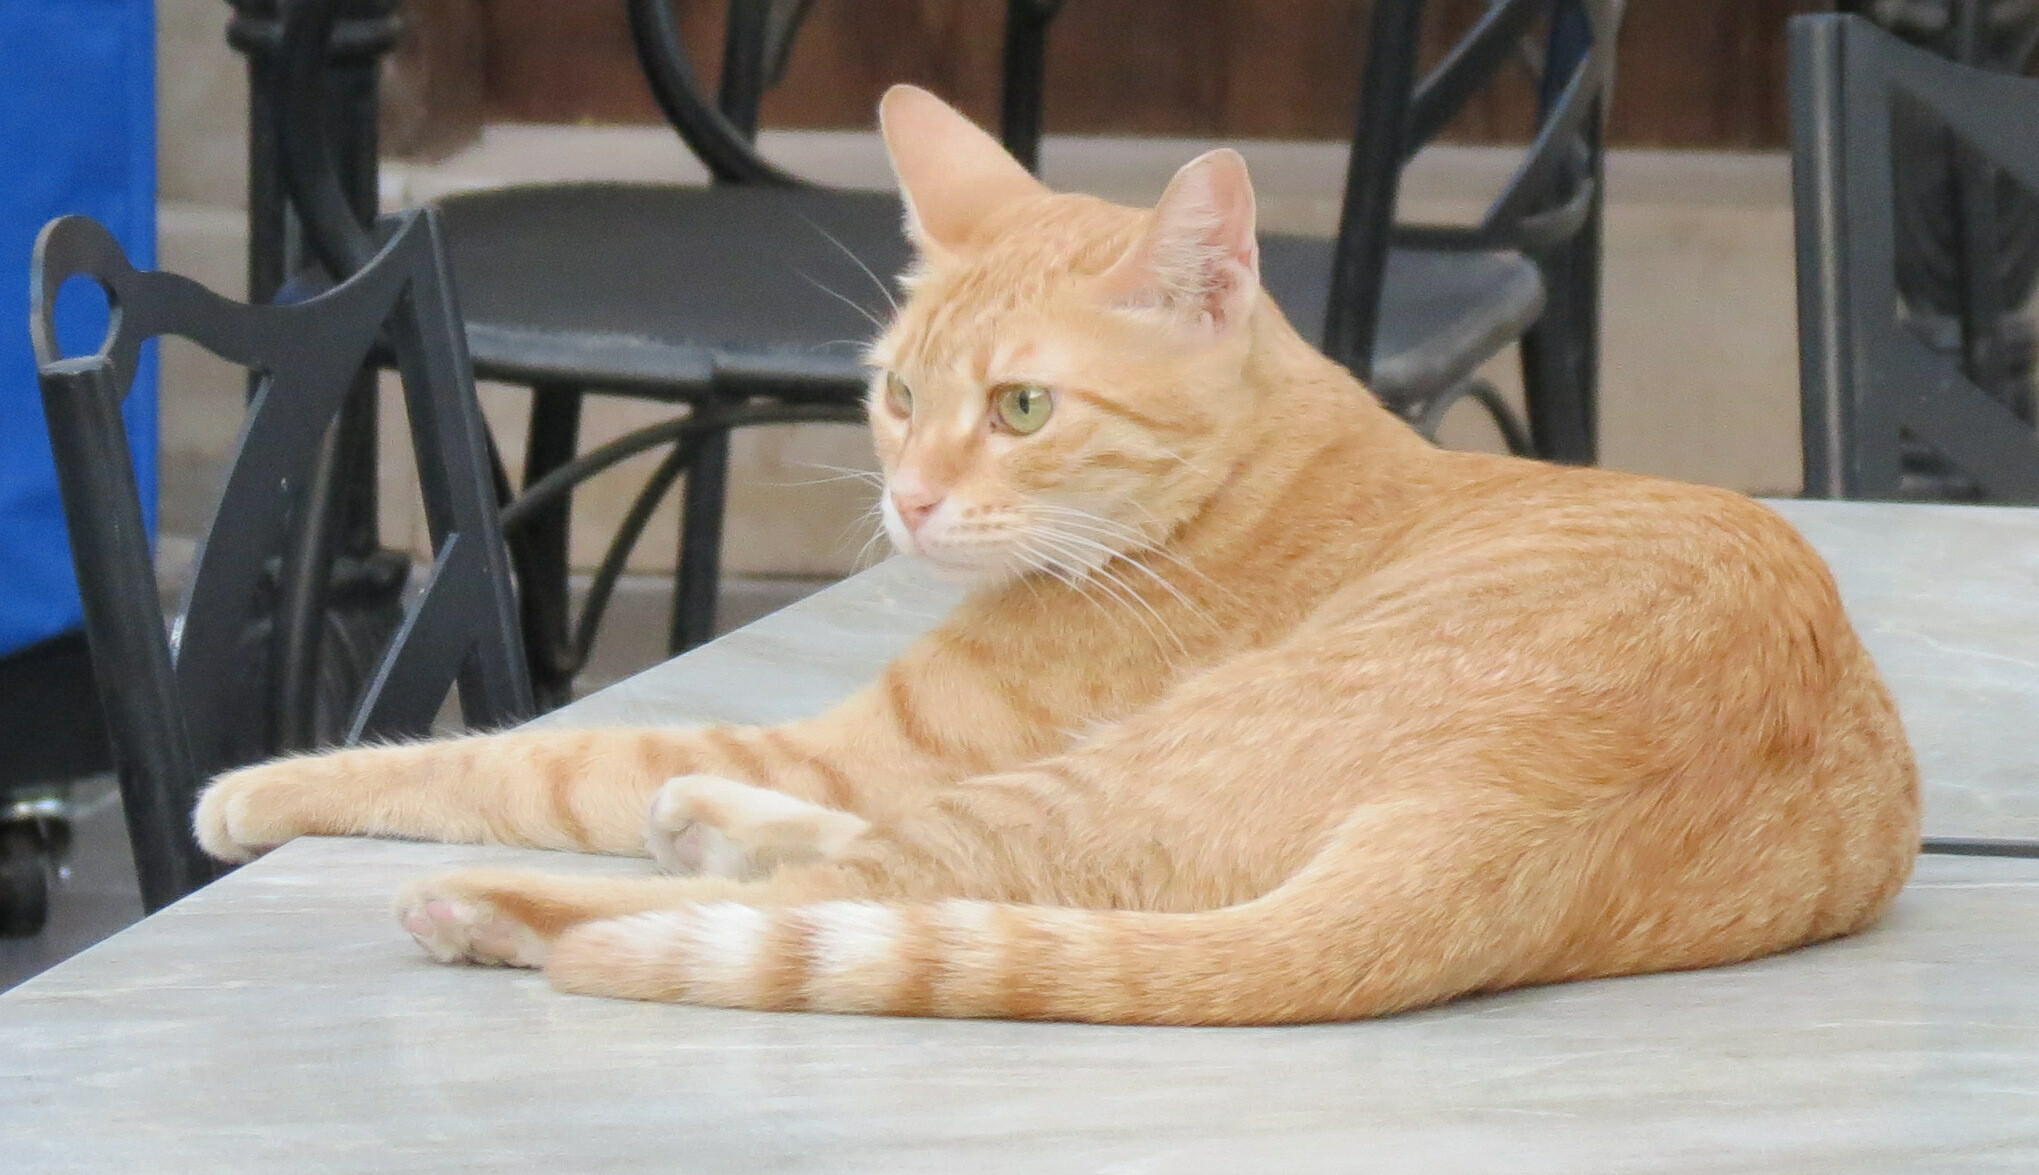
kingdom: Animalia
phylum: Chordata
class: Mammalia
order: Carnivora
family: Felidae
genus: Felis
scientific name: Felis catus
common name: Domestic cat
